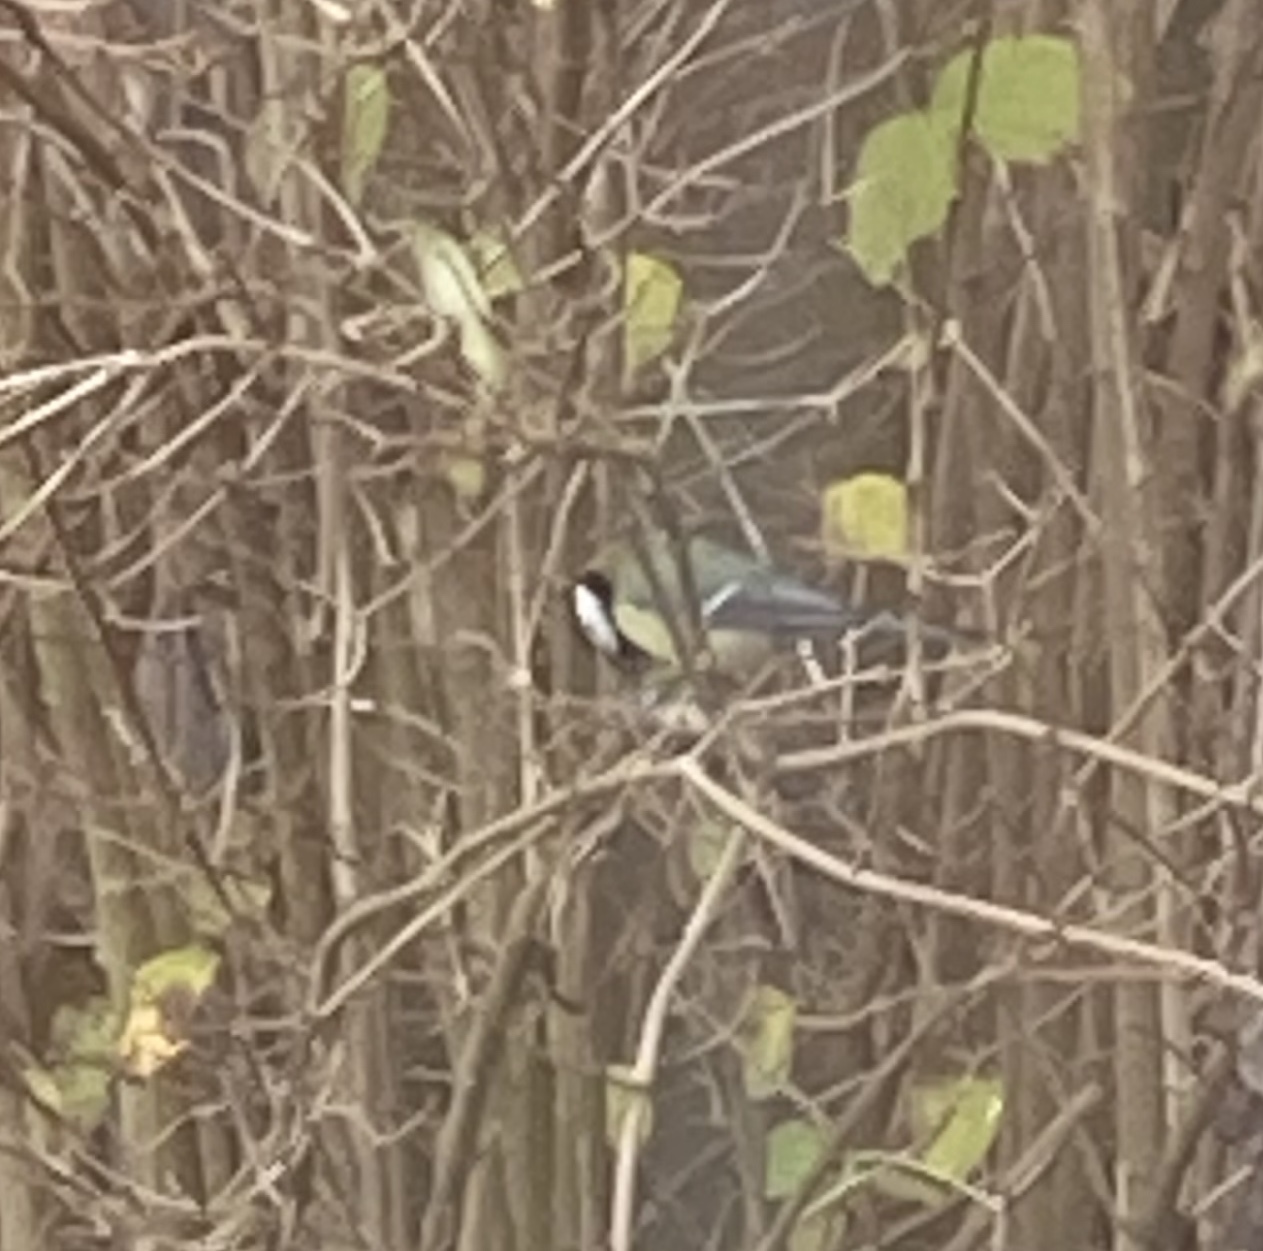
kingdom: Animalia
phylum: Chordata
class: Aves
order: Passeriformes
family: Paridae
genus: Parus
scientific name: Parus major
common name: Great tit
